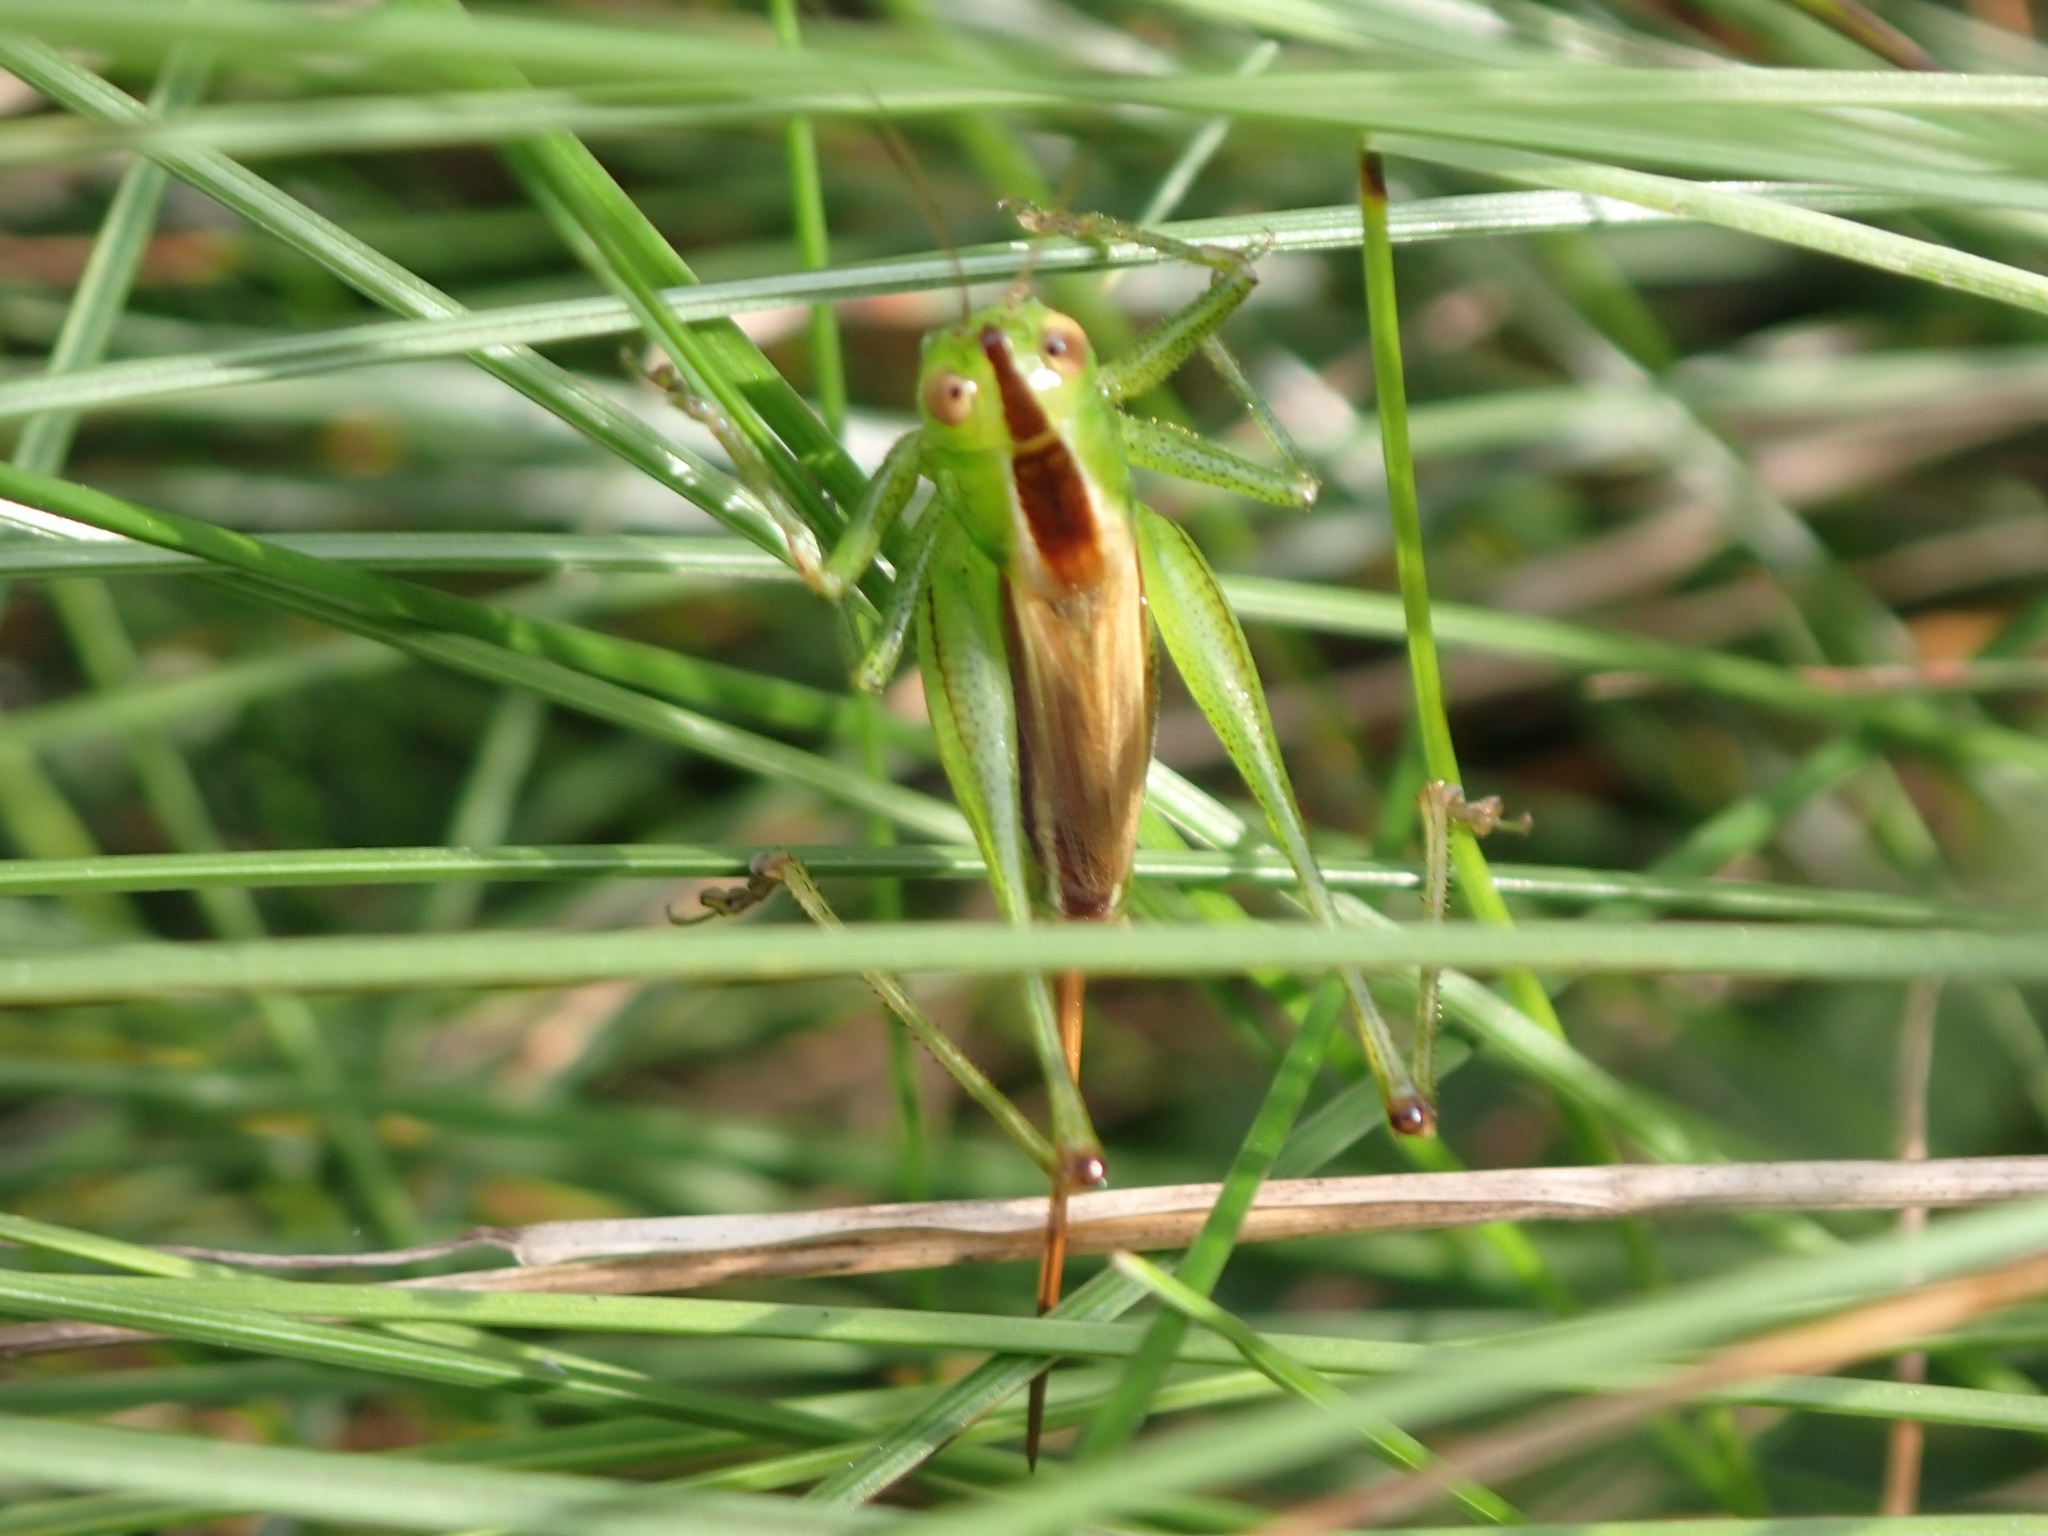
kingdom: Animalia
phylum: Arthropoda
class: Insecta
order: Orthoptera
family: Tettigoniidae
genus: Conocephalus
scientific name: Conocephalus brevipennis
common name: Short-winged meadow katydid
